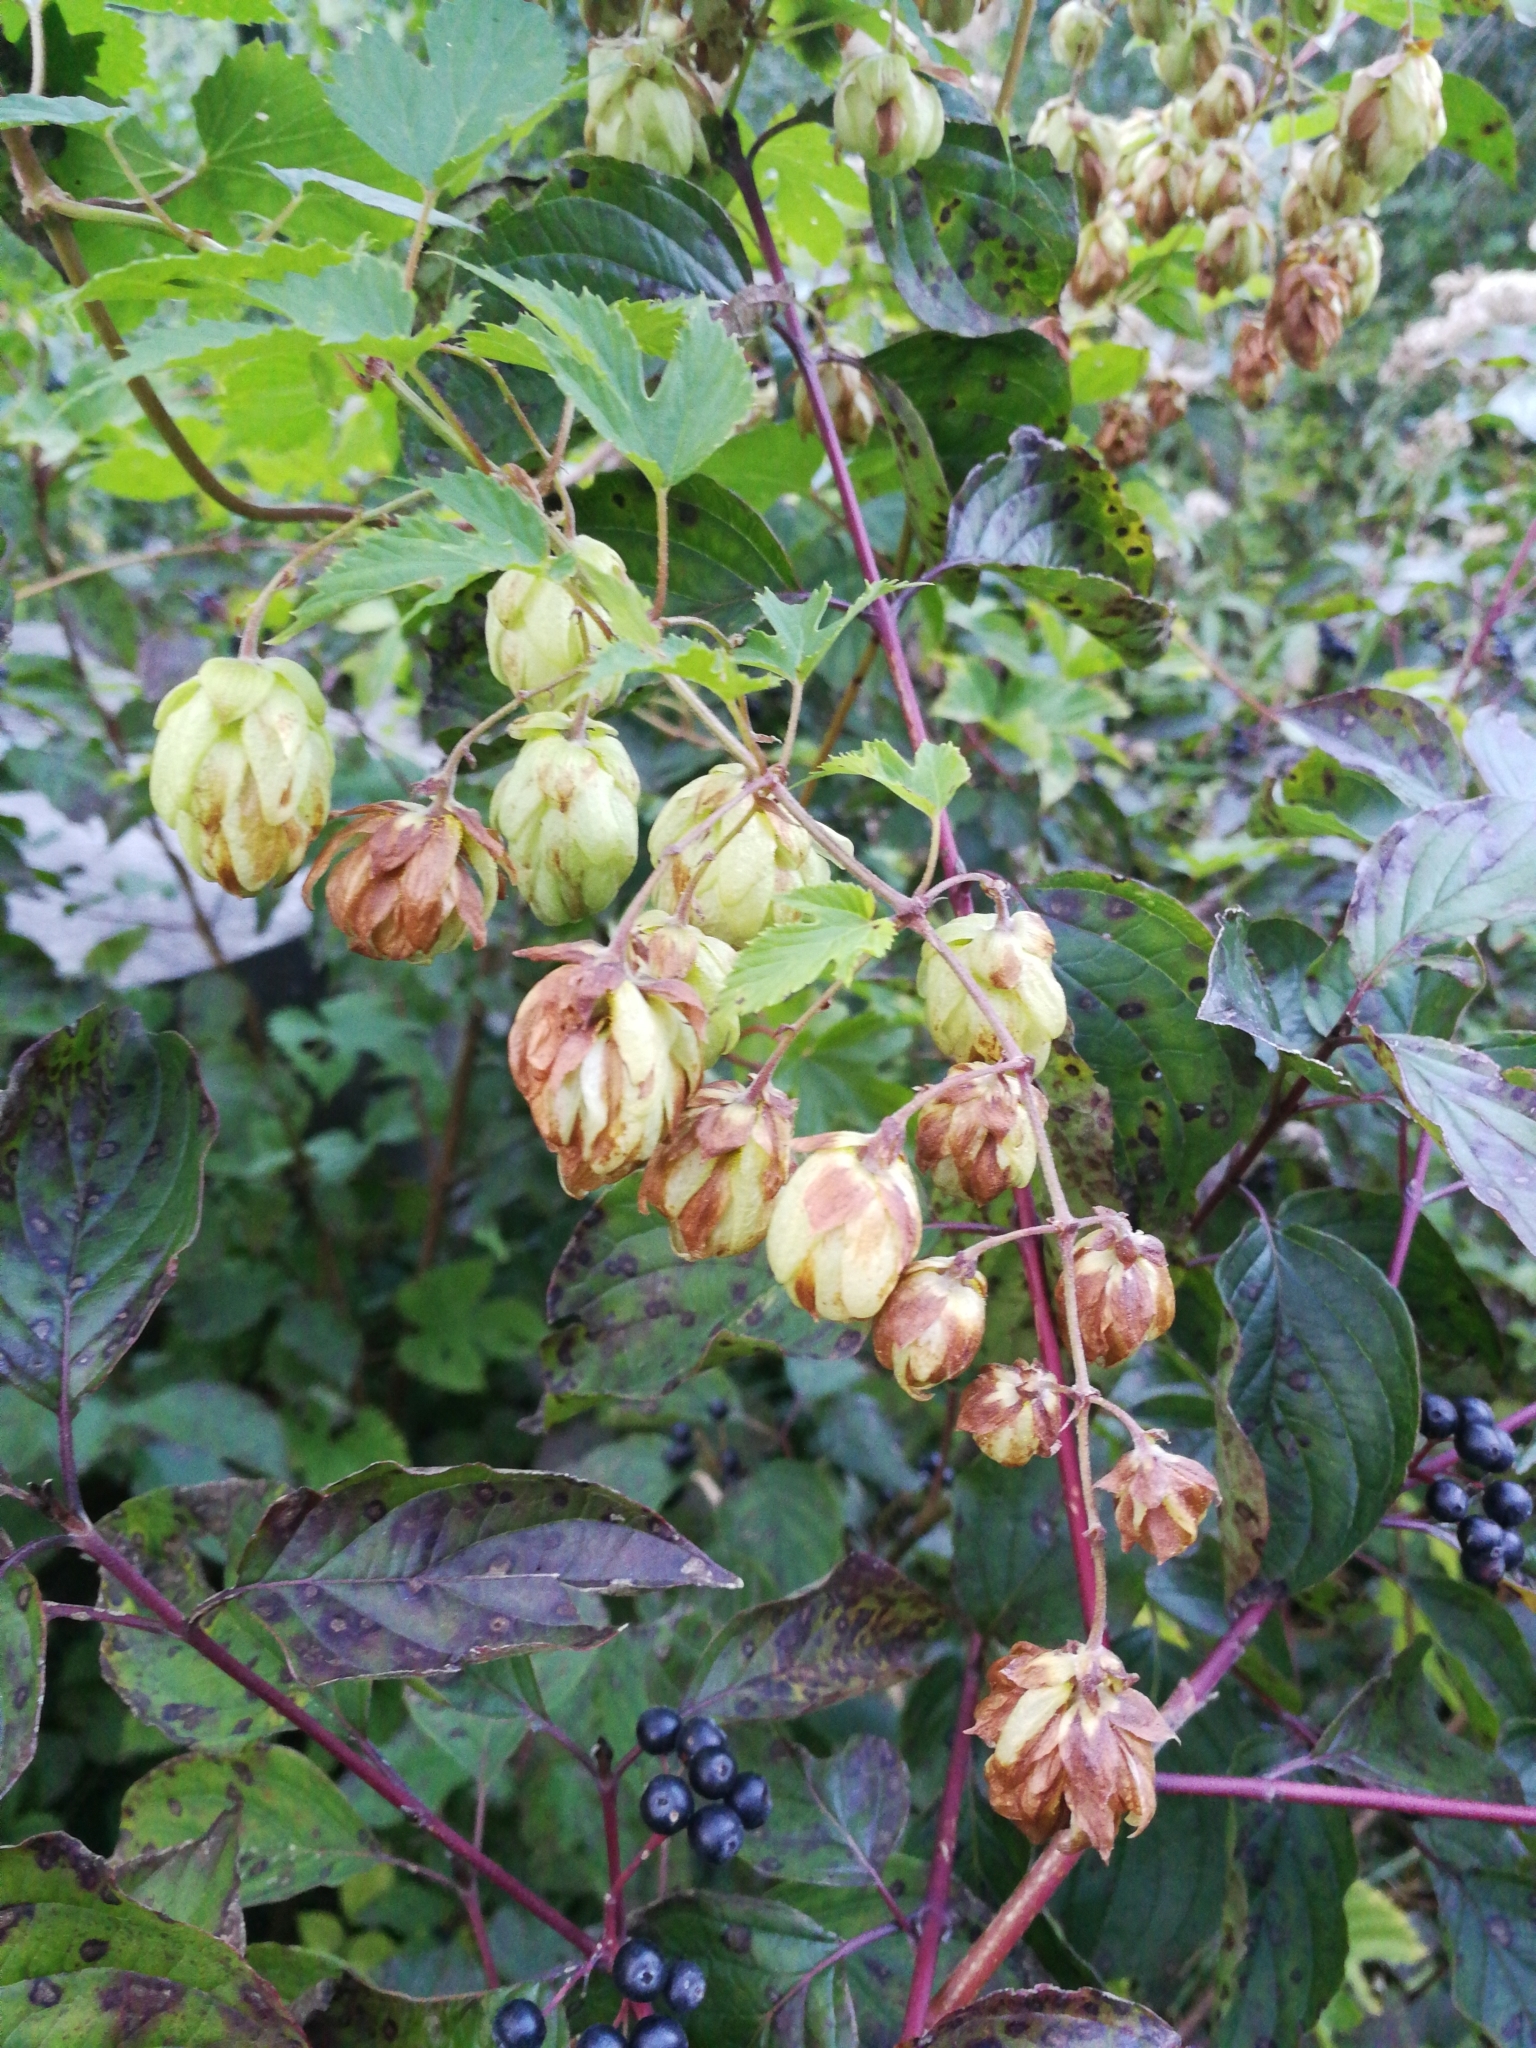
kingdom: Plantae
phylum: Tracheophyta
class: Magnoliopsida
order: Rosales
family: Cannabaceae
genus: Humulus
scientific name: Humulus lupulus
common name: Hop
